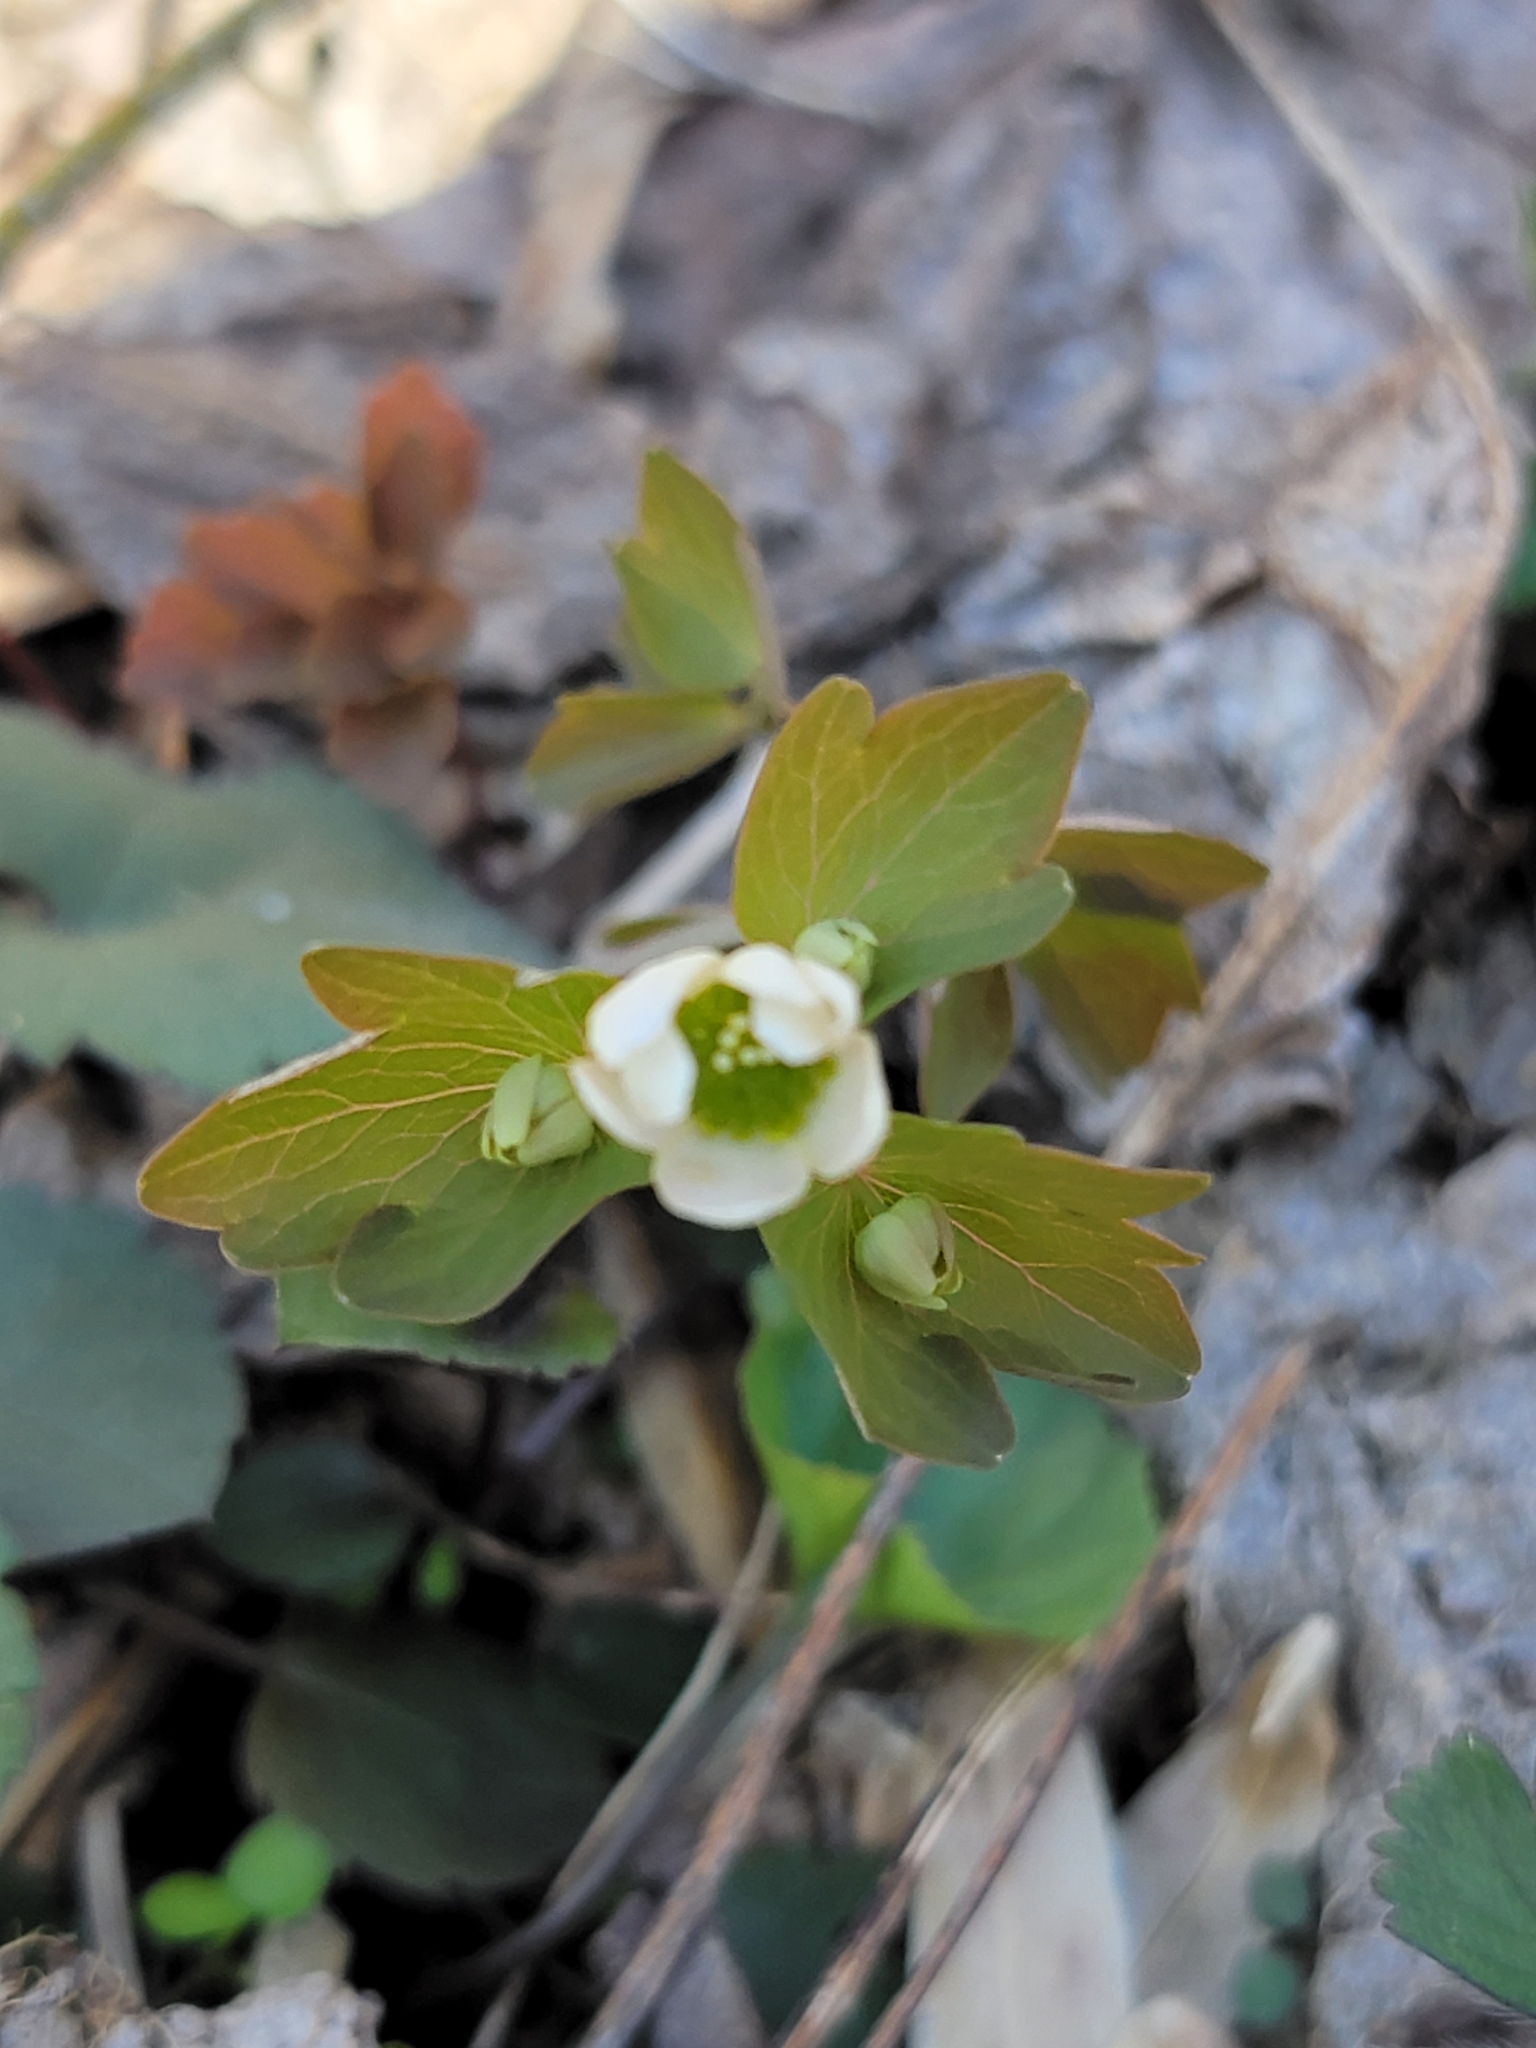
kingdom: Plantae
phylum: Tracheophyta
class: Magnoliopsida
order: Ranunculales
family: Ranunculaceae
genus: Thalictrum
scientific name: Thalictrum thalictroides
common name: Rue-anemone
